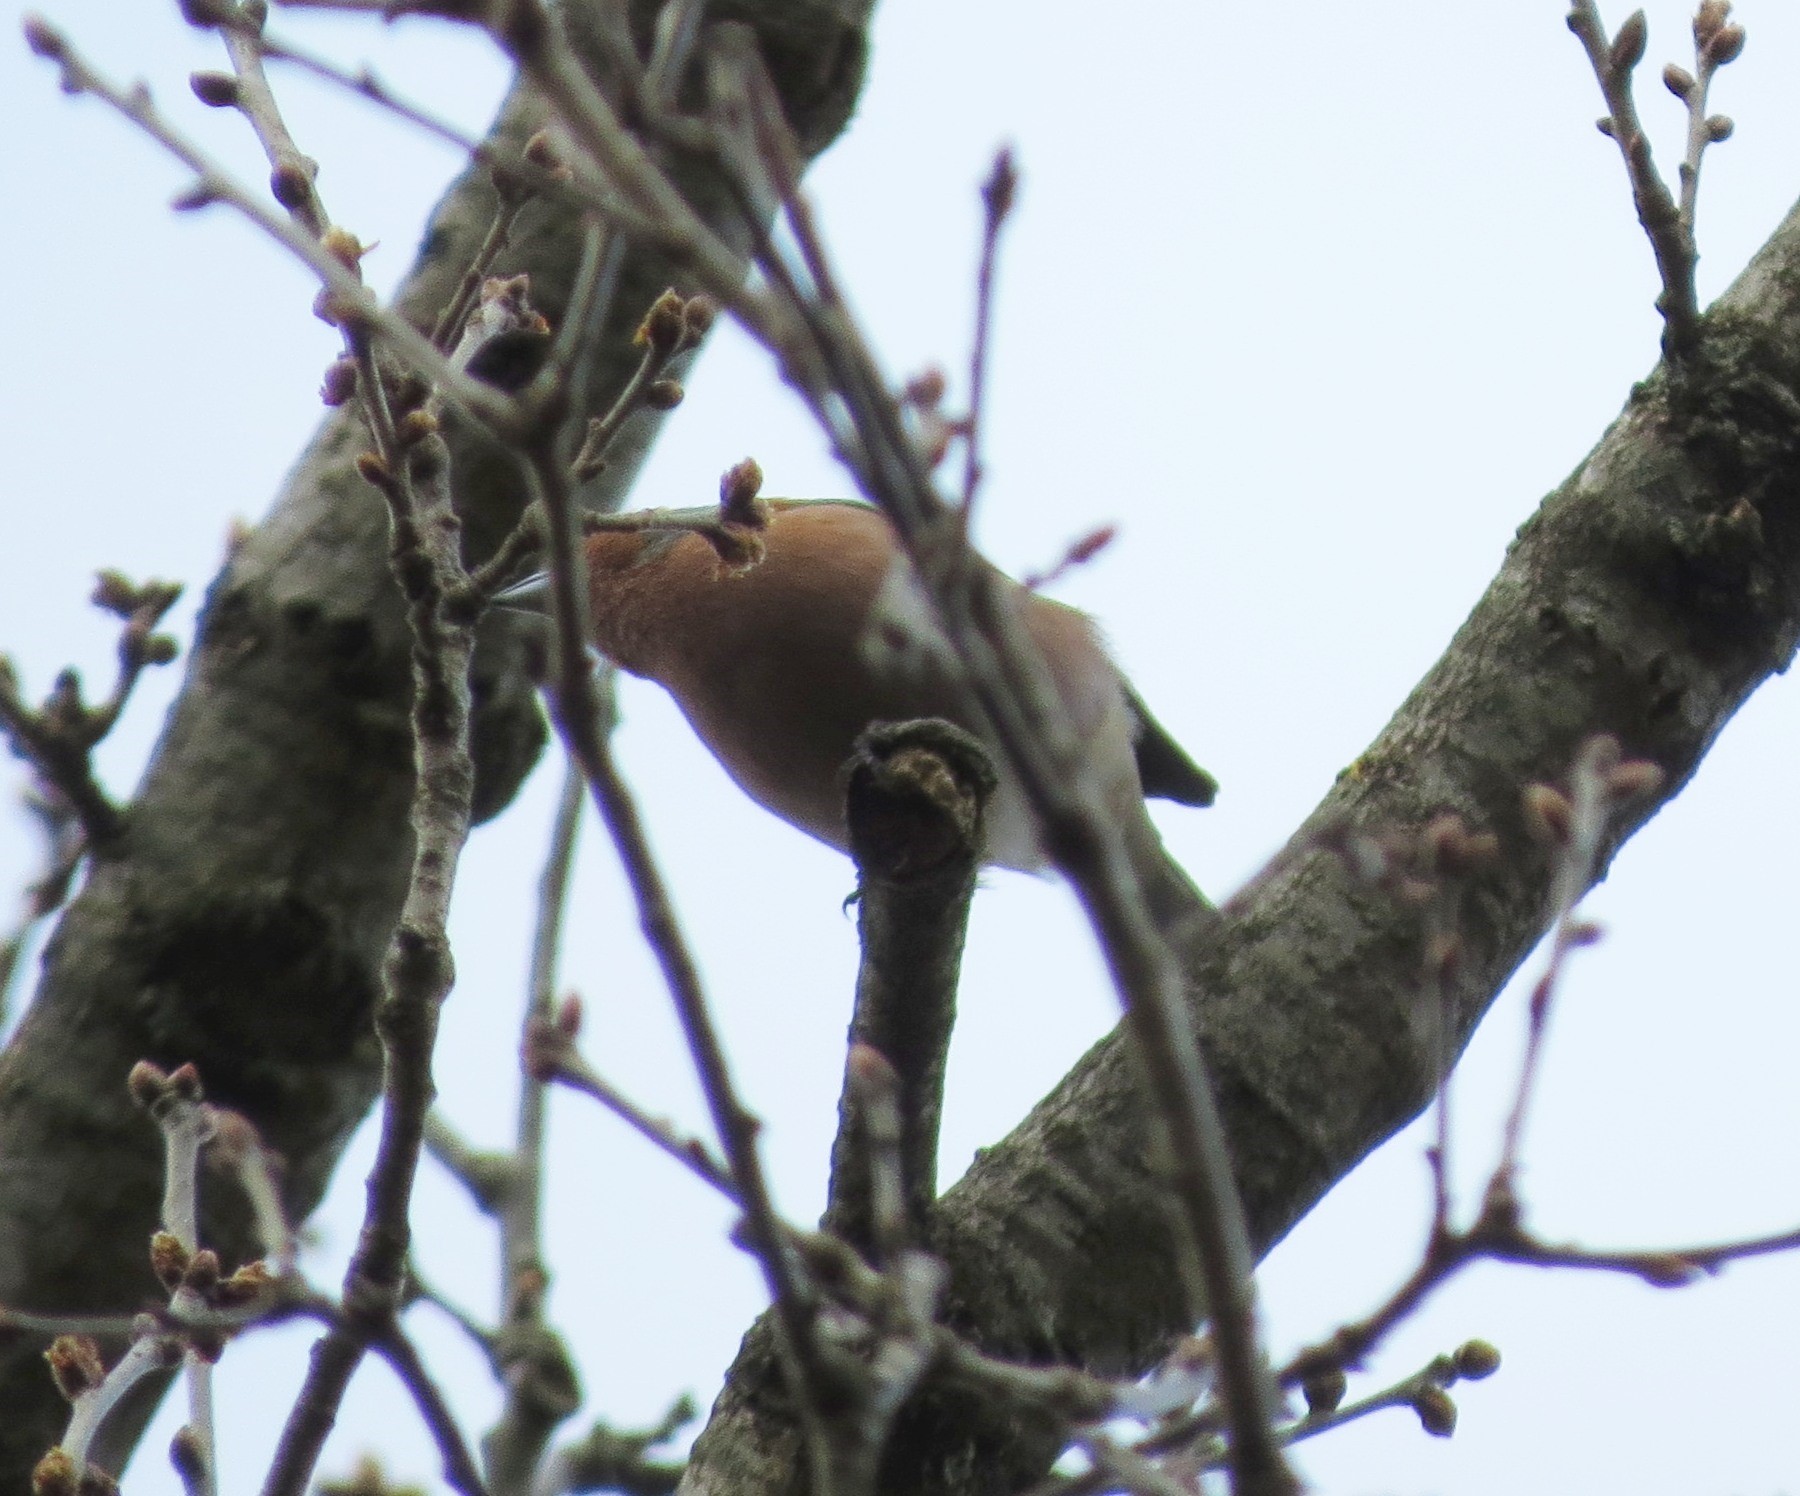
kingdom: Animalia
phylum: Chordata
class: Aves
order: Passeriformes
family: Fringillidae
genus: Fringilla
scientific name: Fringilla coelebs
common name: Common chaffinch
